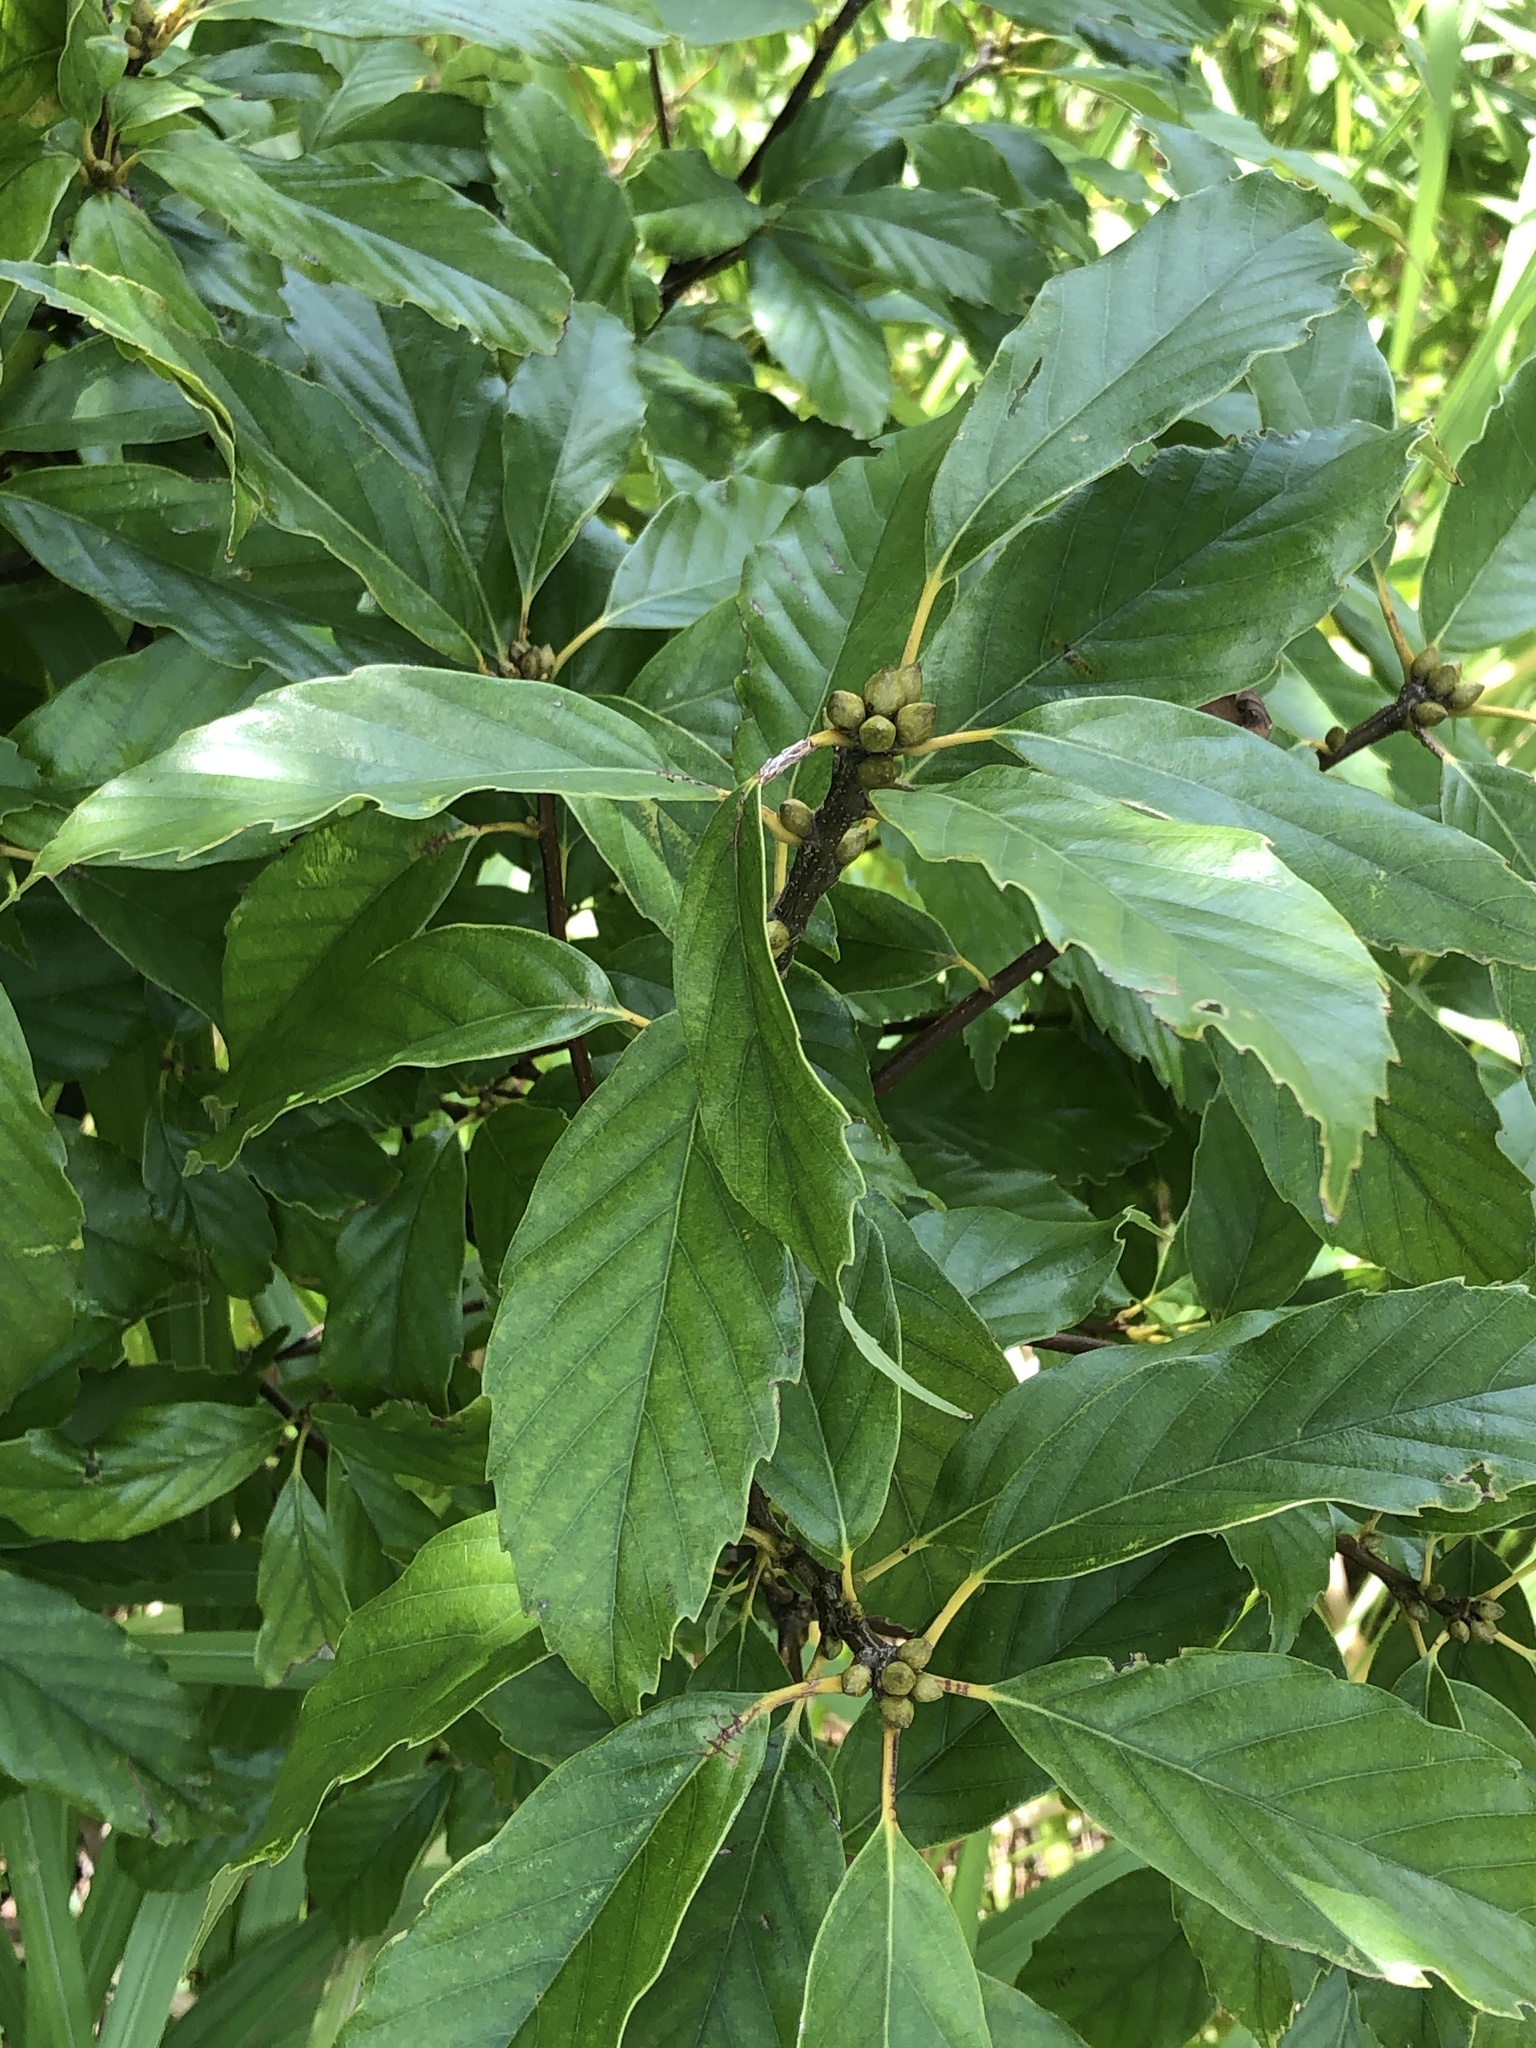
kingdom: Plantae
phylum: Tracheophyta
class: Magnoliopsida
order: Fagales
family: Fagaceae
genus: Quercus
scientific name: Quercus glauca
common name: Ring-cup oak
